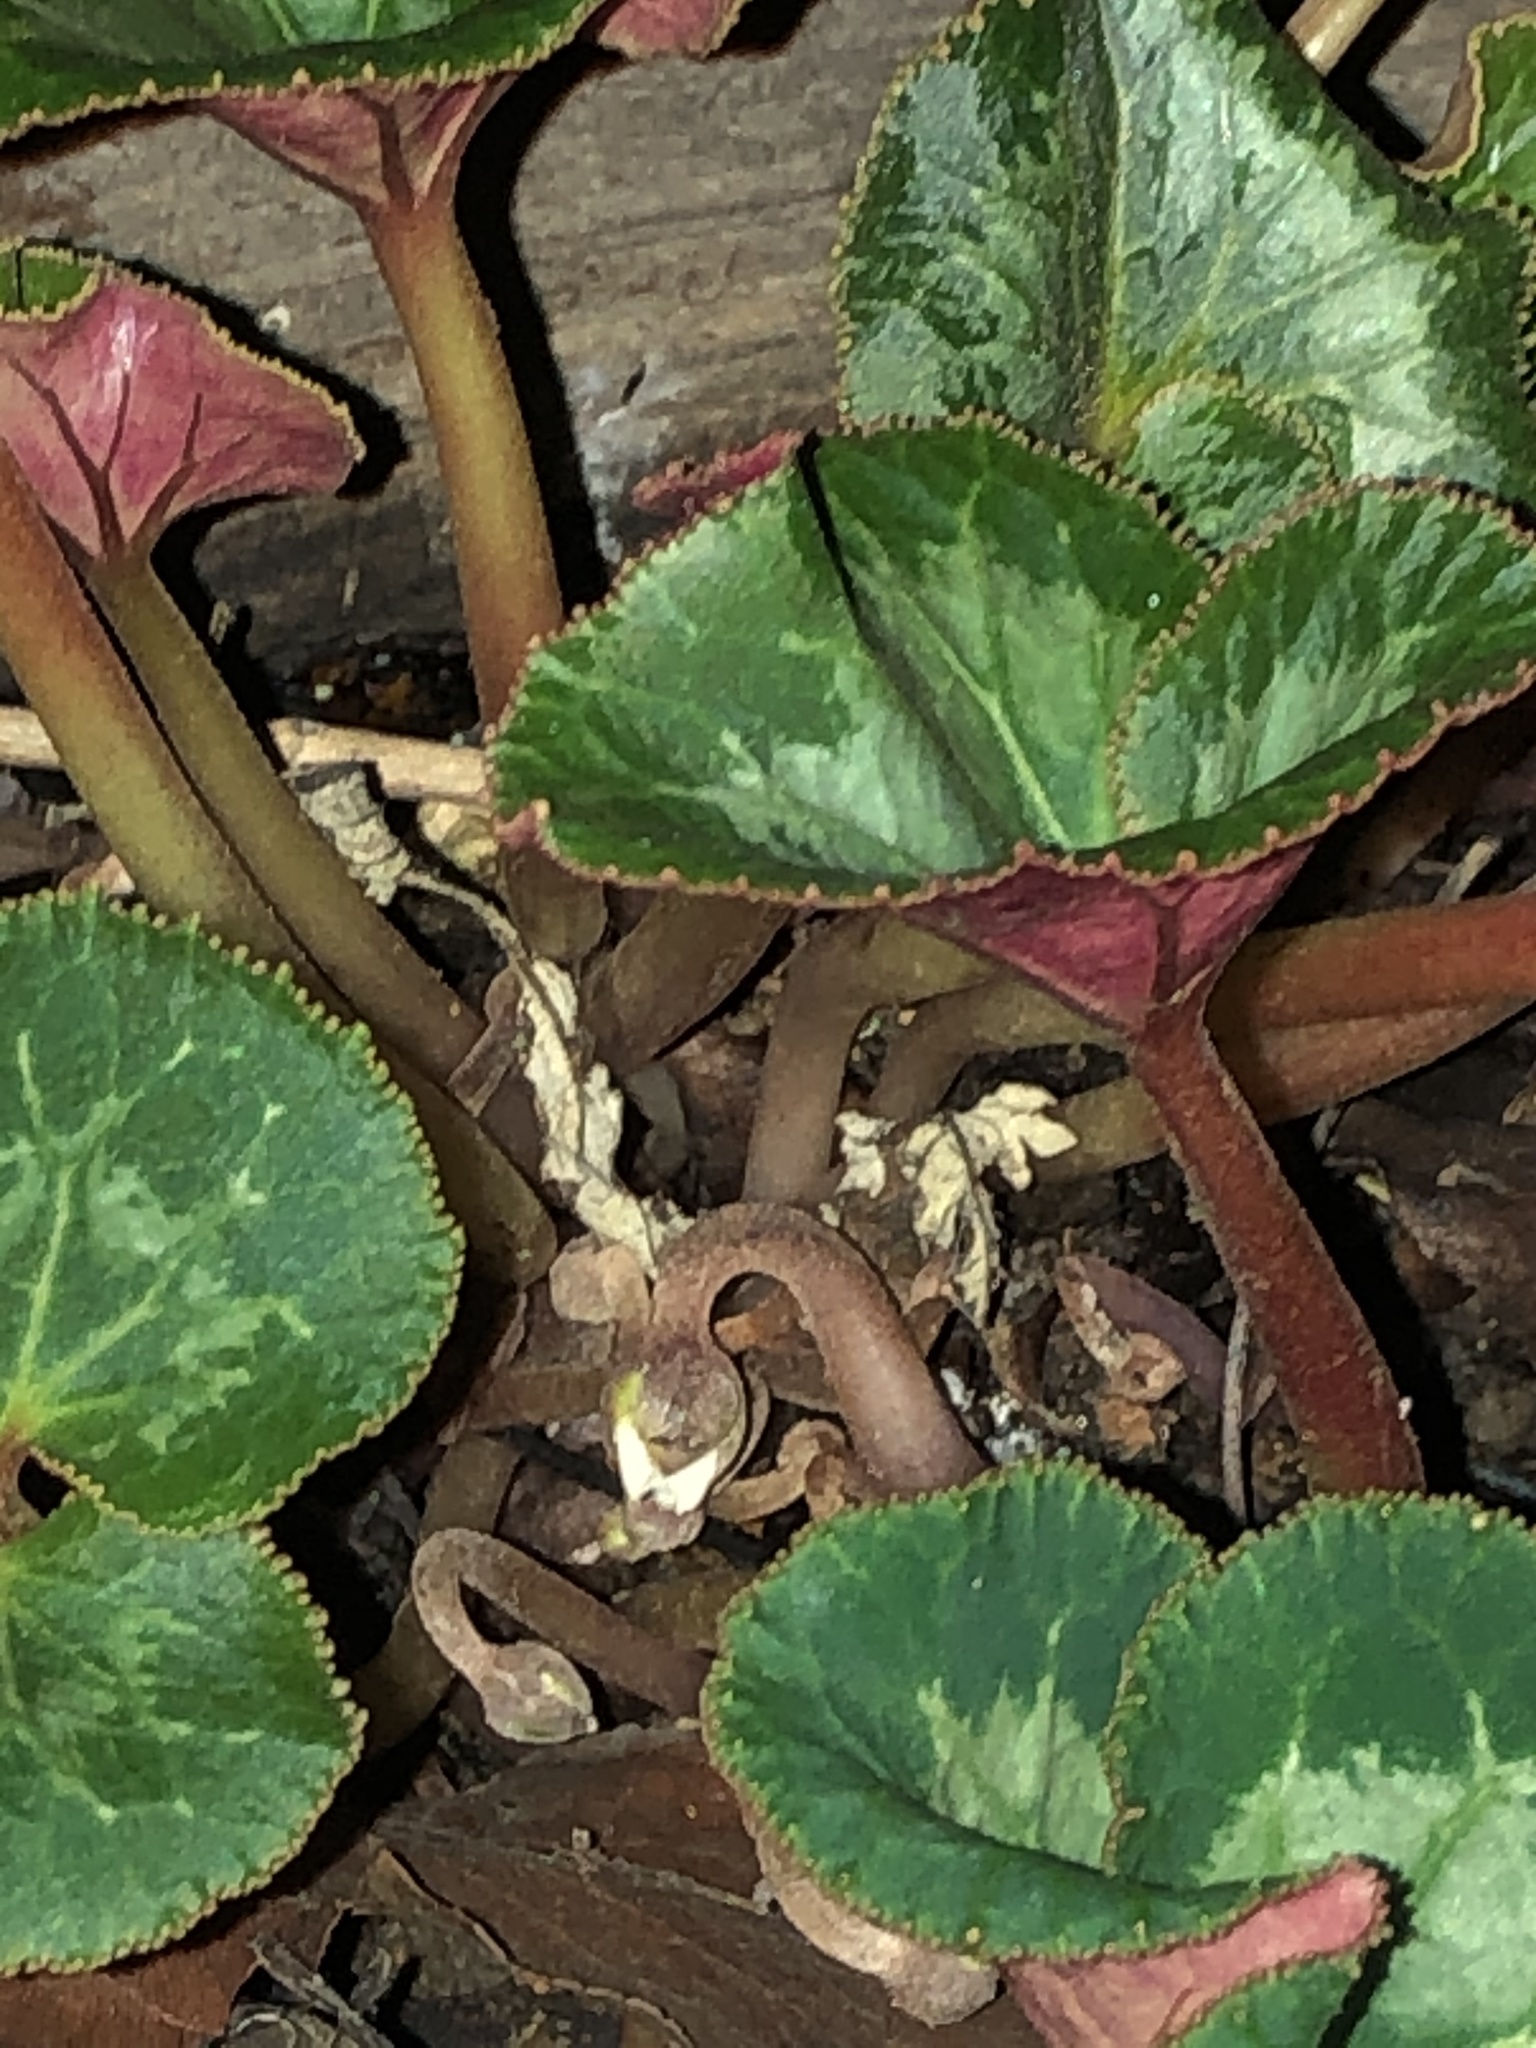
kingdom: Plantae
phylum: Tracheophyta
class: Magnoliopsida
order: Ericales
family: Primulaceae
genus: Cyclamen
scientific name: Cyclamen persicum
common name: Florist's cyclamen
